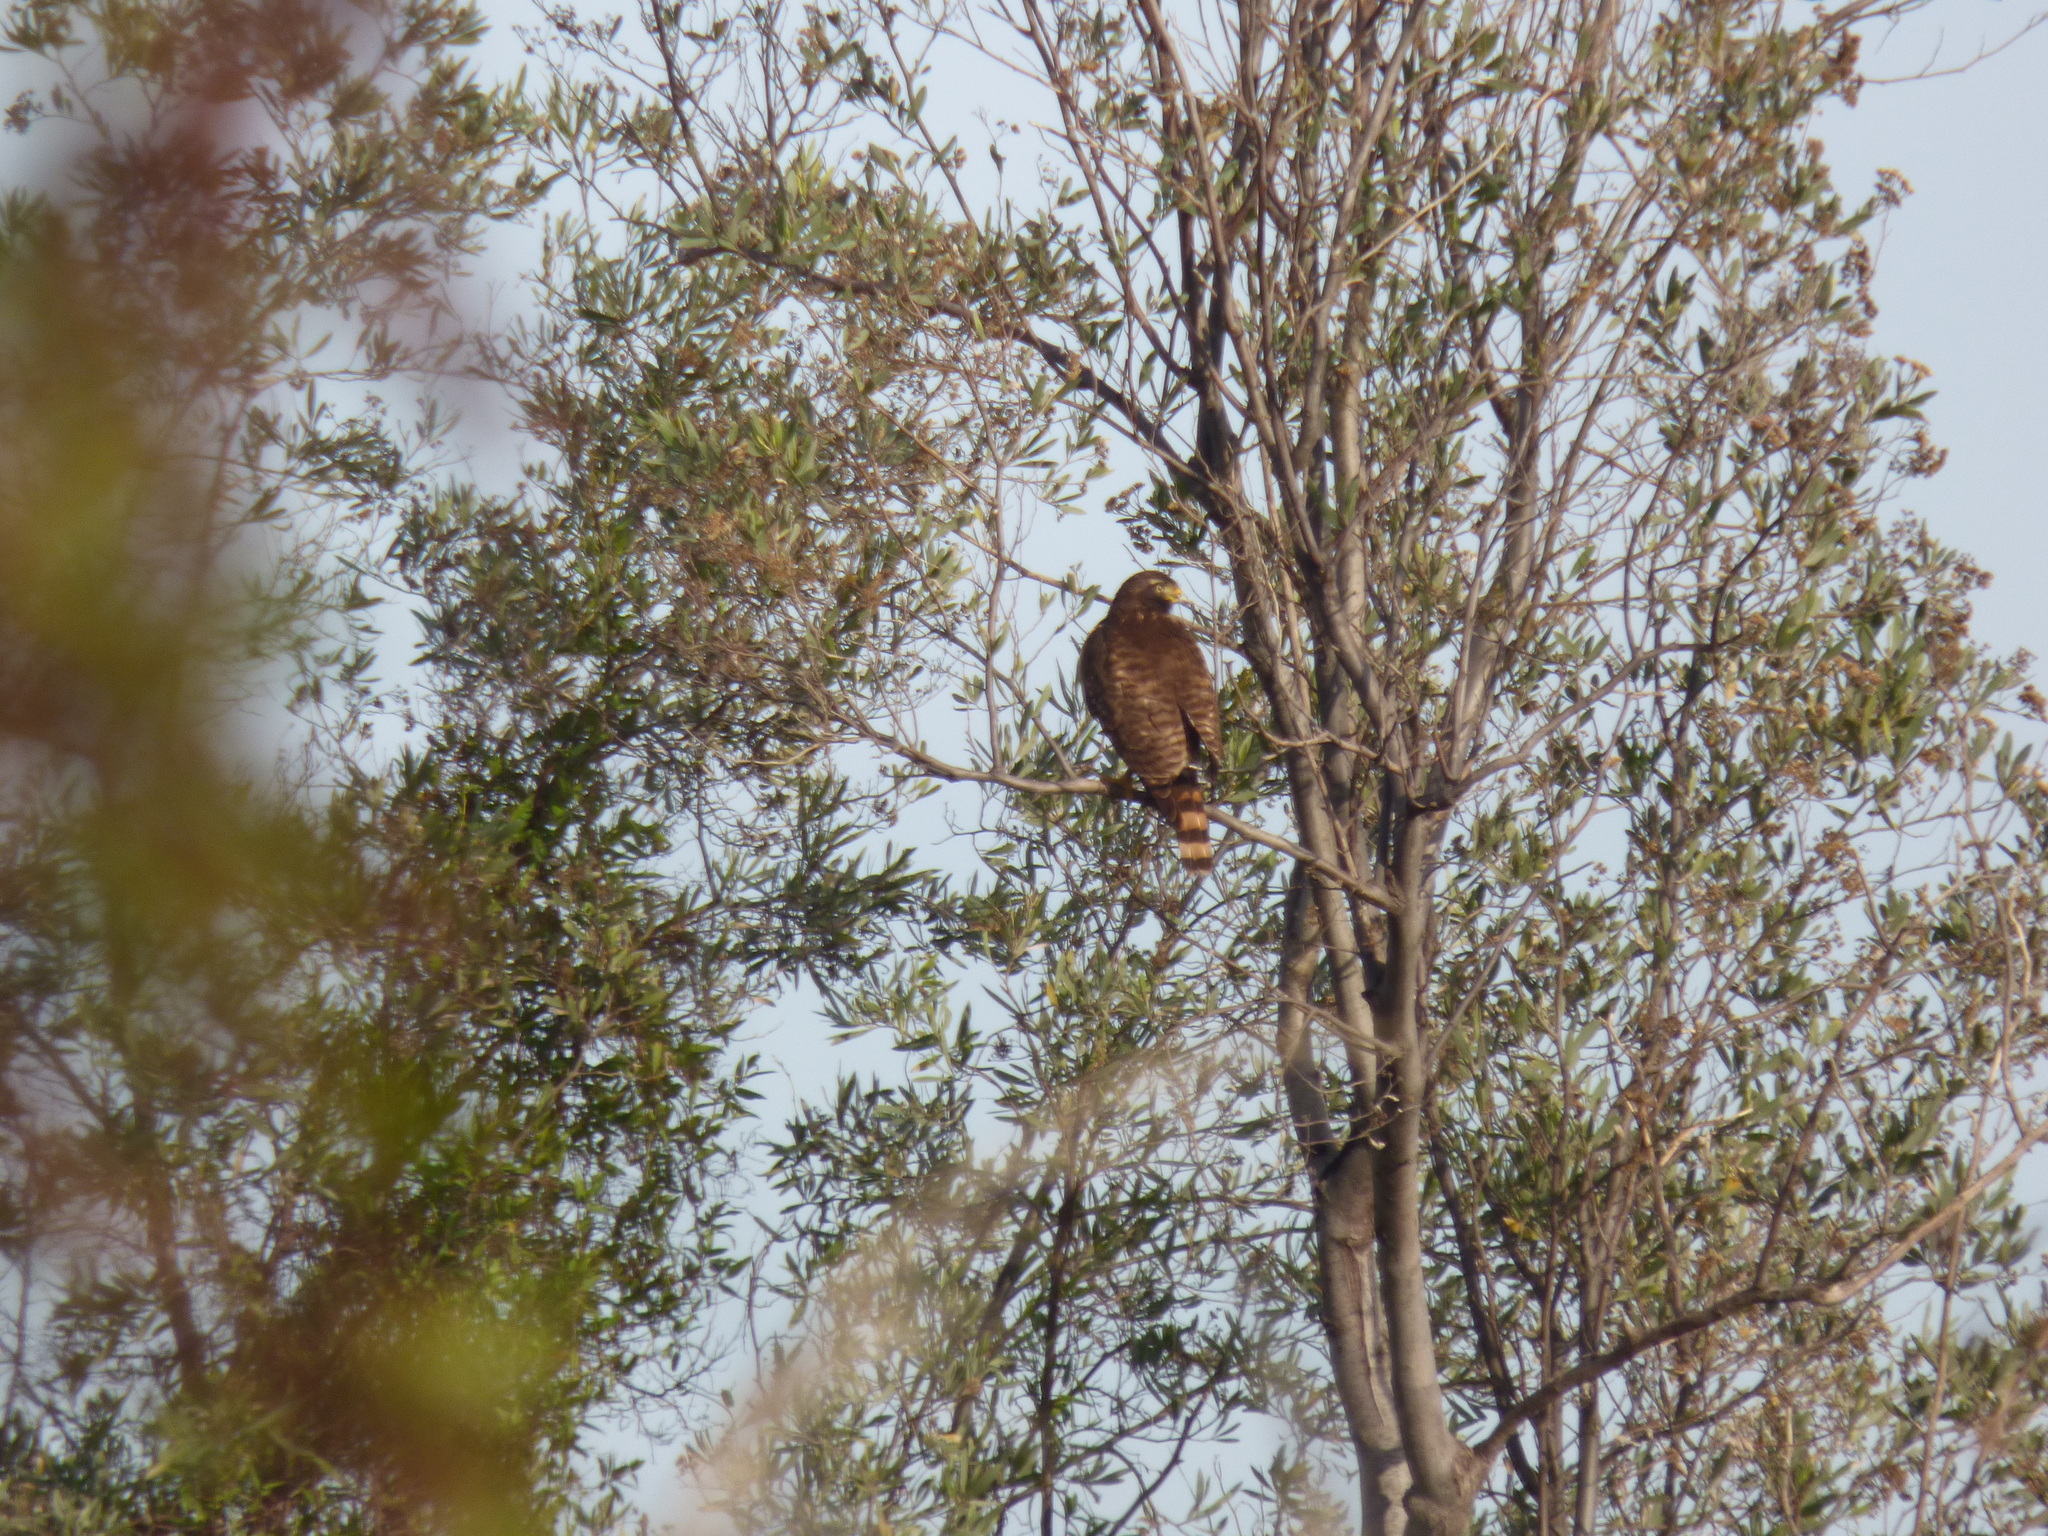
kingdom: Animalia
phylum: Chordata
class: Aves
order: Accipitriformes
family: Accipitridae
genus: Rupornis
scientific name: Rupornis magnirostris
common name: Roadside hawk
